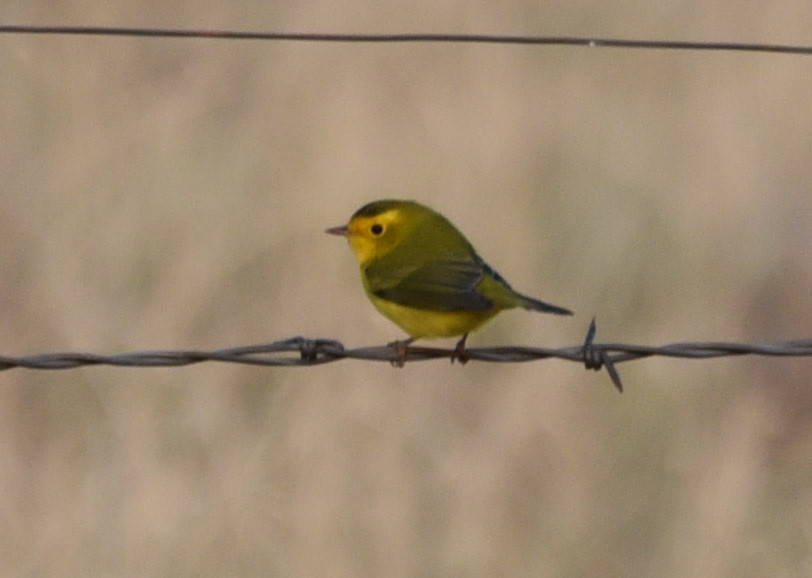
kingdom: Animalia
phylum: Chordata
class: Aves
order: Passeriformes
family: Parulidae
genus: Cardellina
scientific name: Cardellina pusilla
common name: Wilson's warbler
